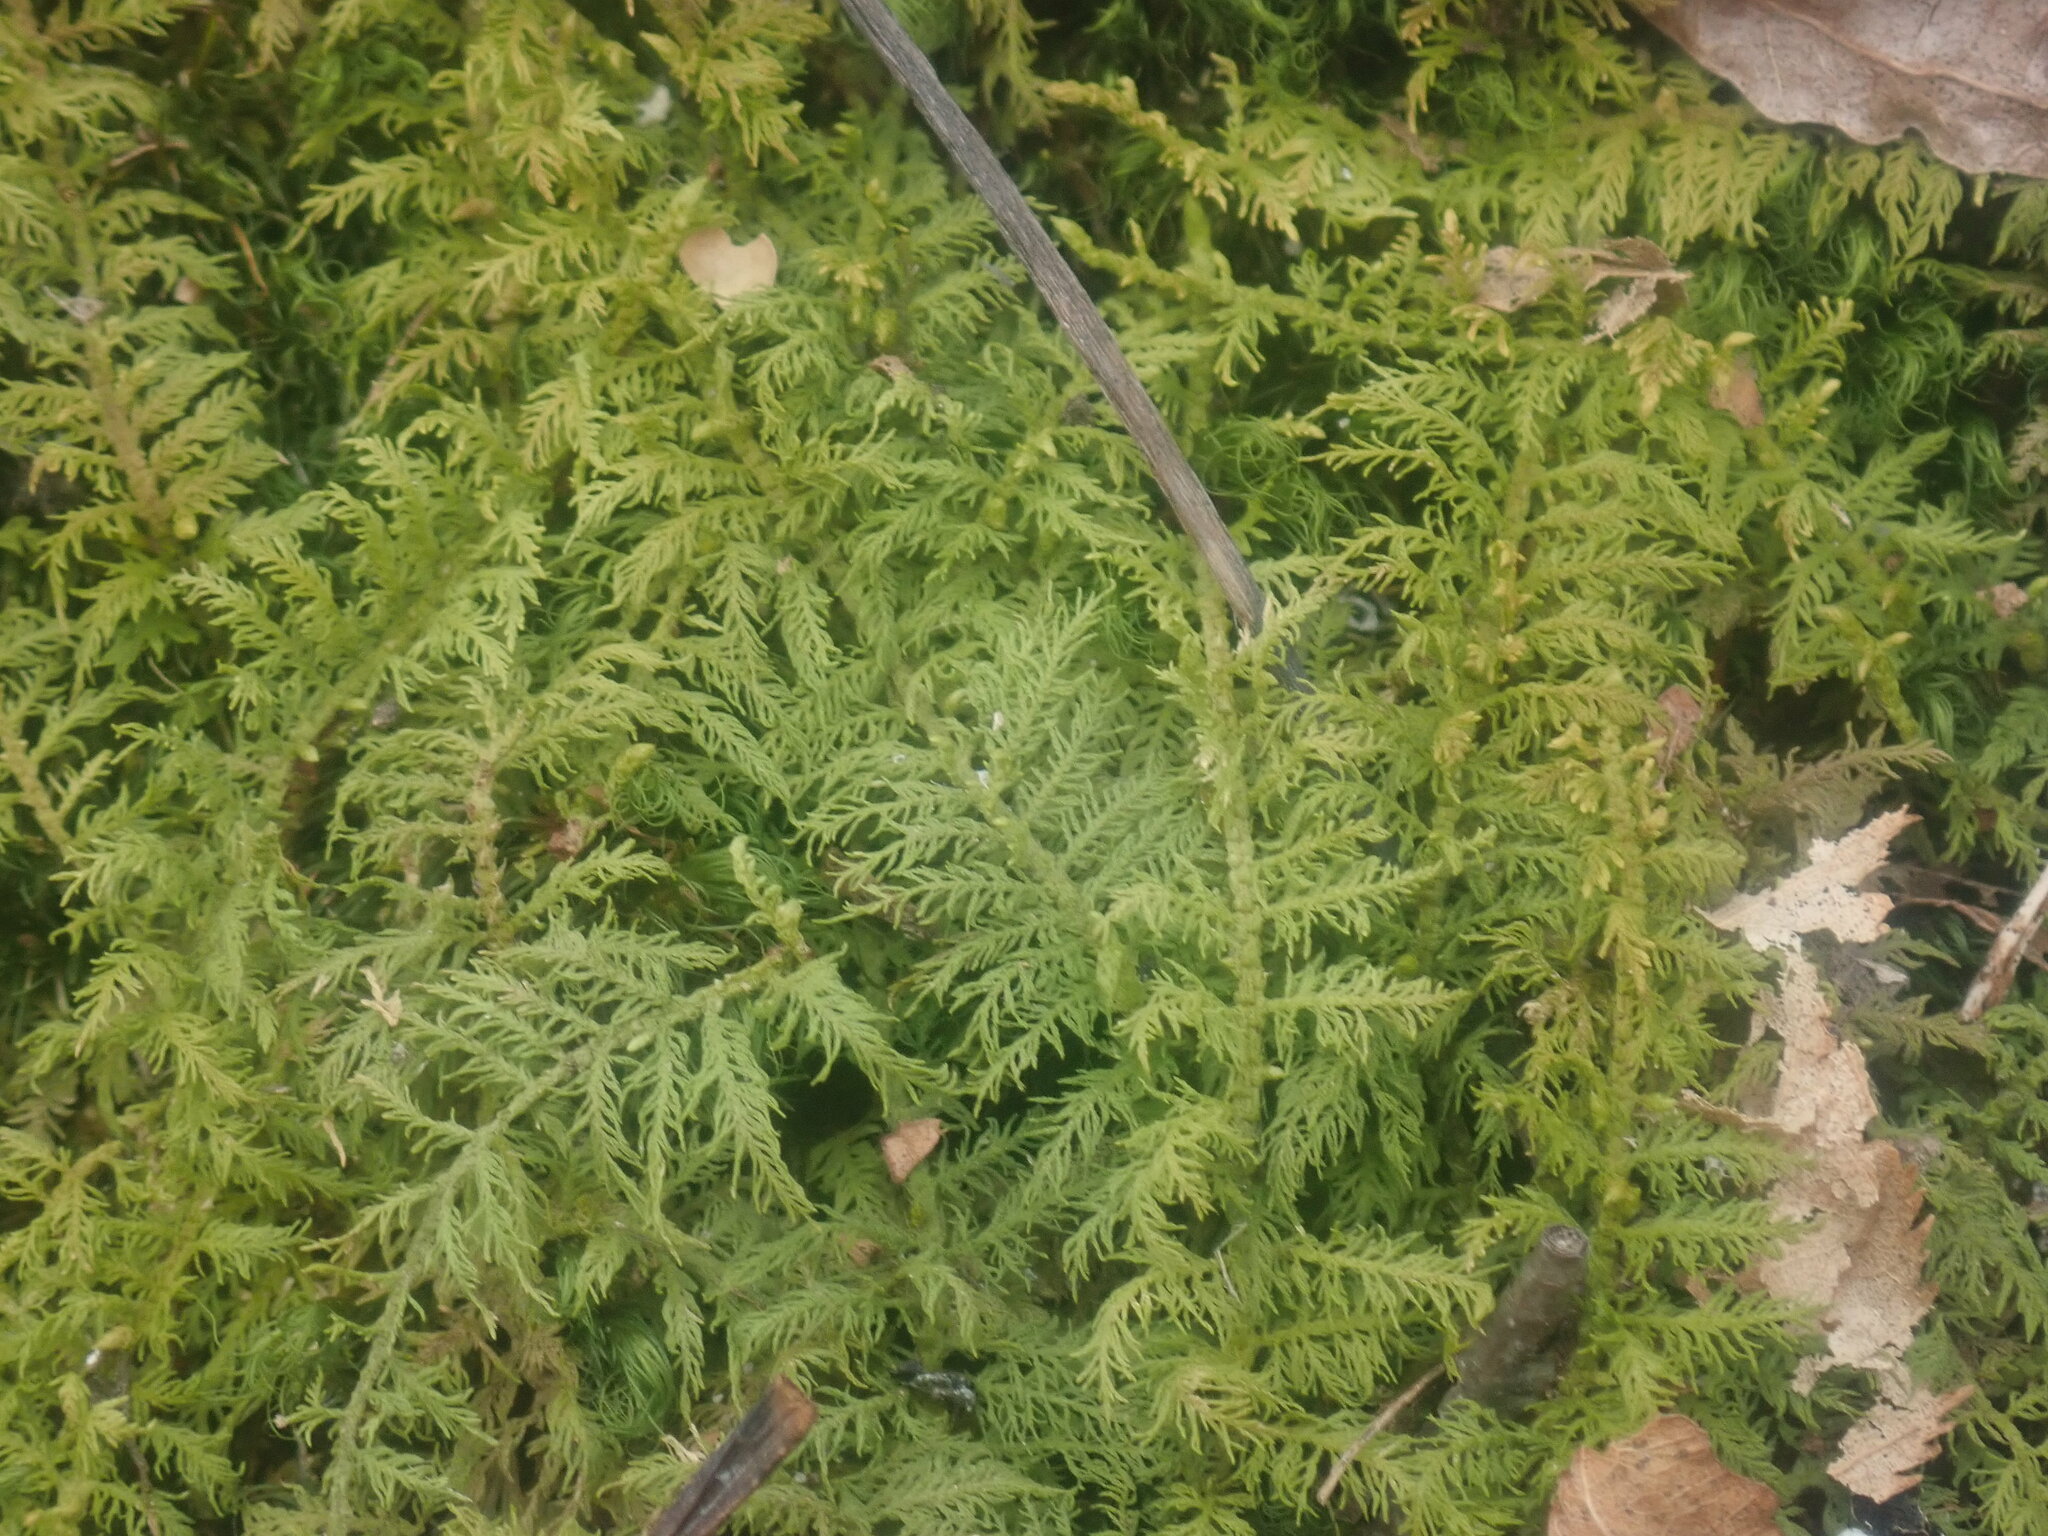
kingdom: Plantae
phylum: Bryophyta
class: Bryopsida
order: Hypnales
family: Thuidiaceae
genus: Thuidium
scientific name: Thuidium delicatulum
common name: Delicate fern moss
